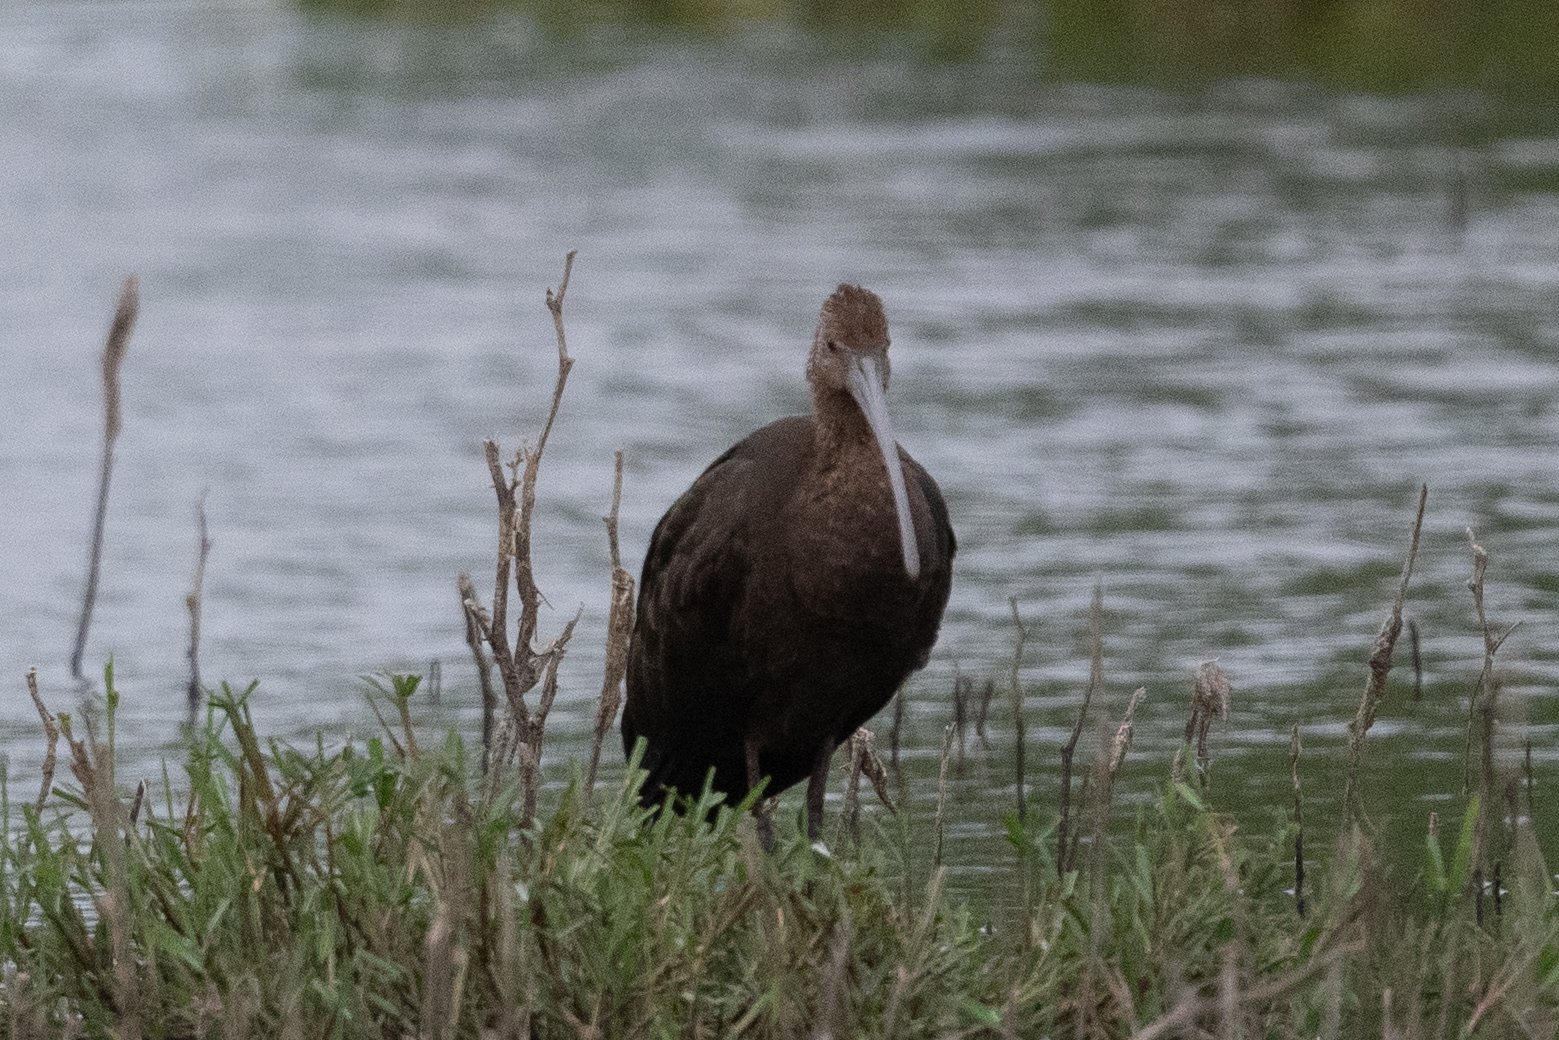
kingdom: Animalia
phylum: Chordata
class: Aves
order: Pelecaniformes
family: Threskiornithidae
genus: Plegadis
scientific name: Plegadis chihi
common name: White-faced ibis
